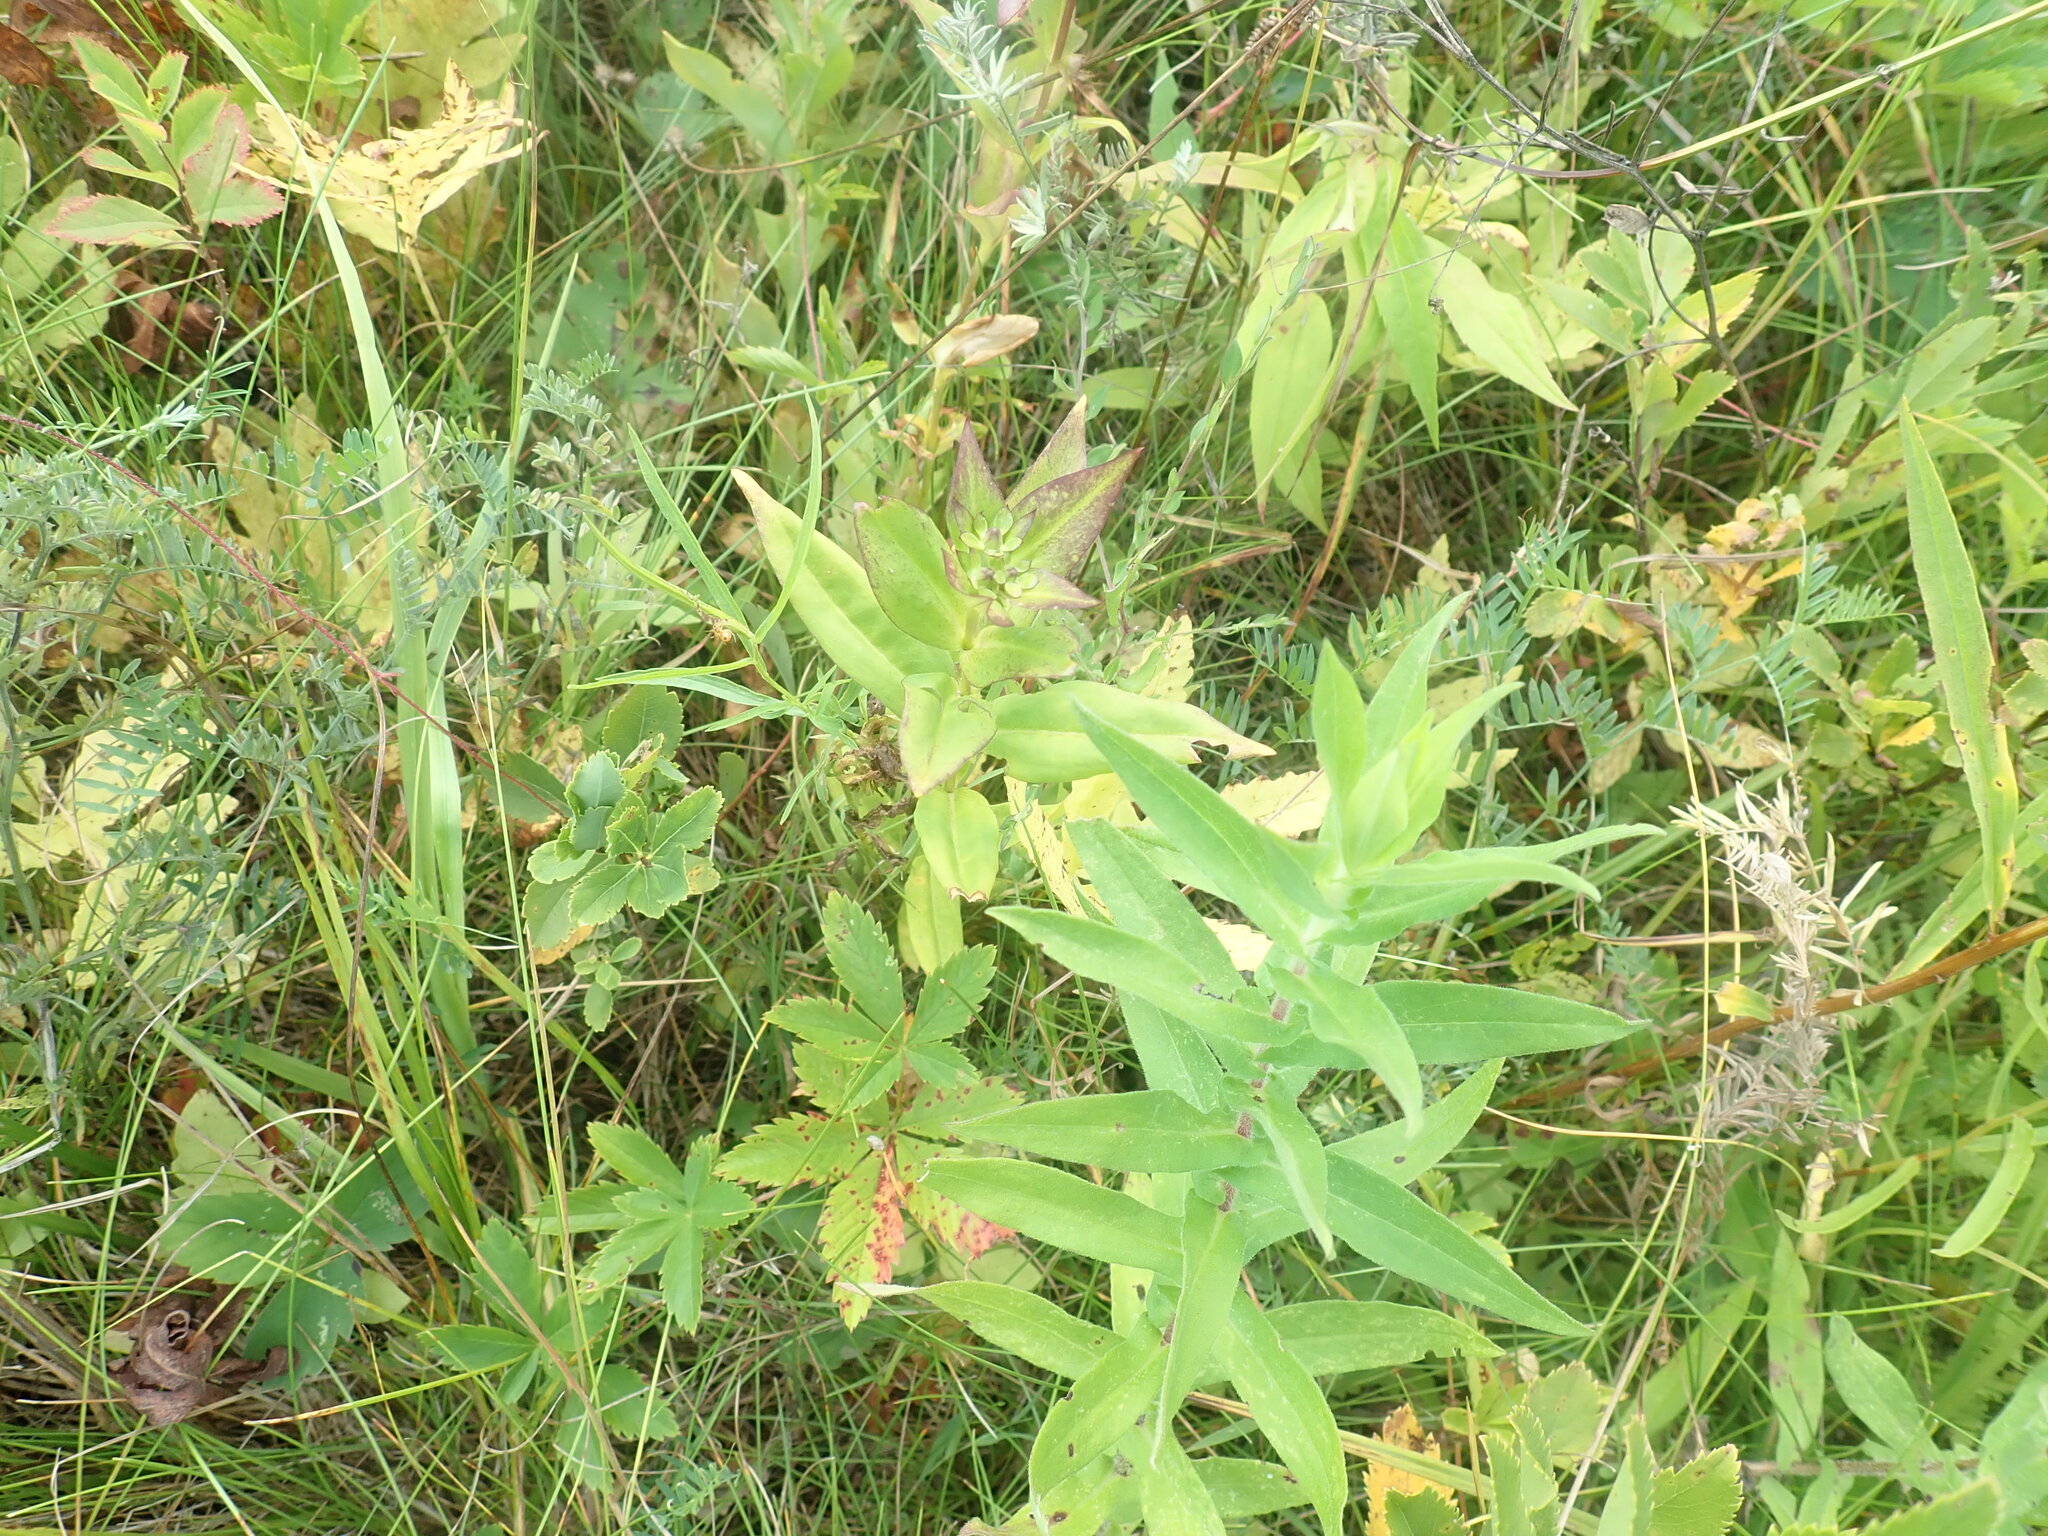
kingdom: Plantae
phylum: Tracheophyta
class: Magnoliopsida
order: Gentianales
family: Gentianaceae
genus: Gentiana
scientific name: Gentiana clausa
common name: Blind gentian
